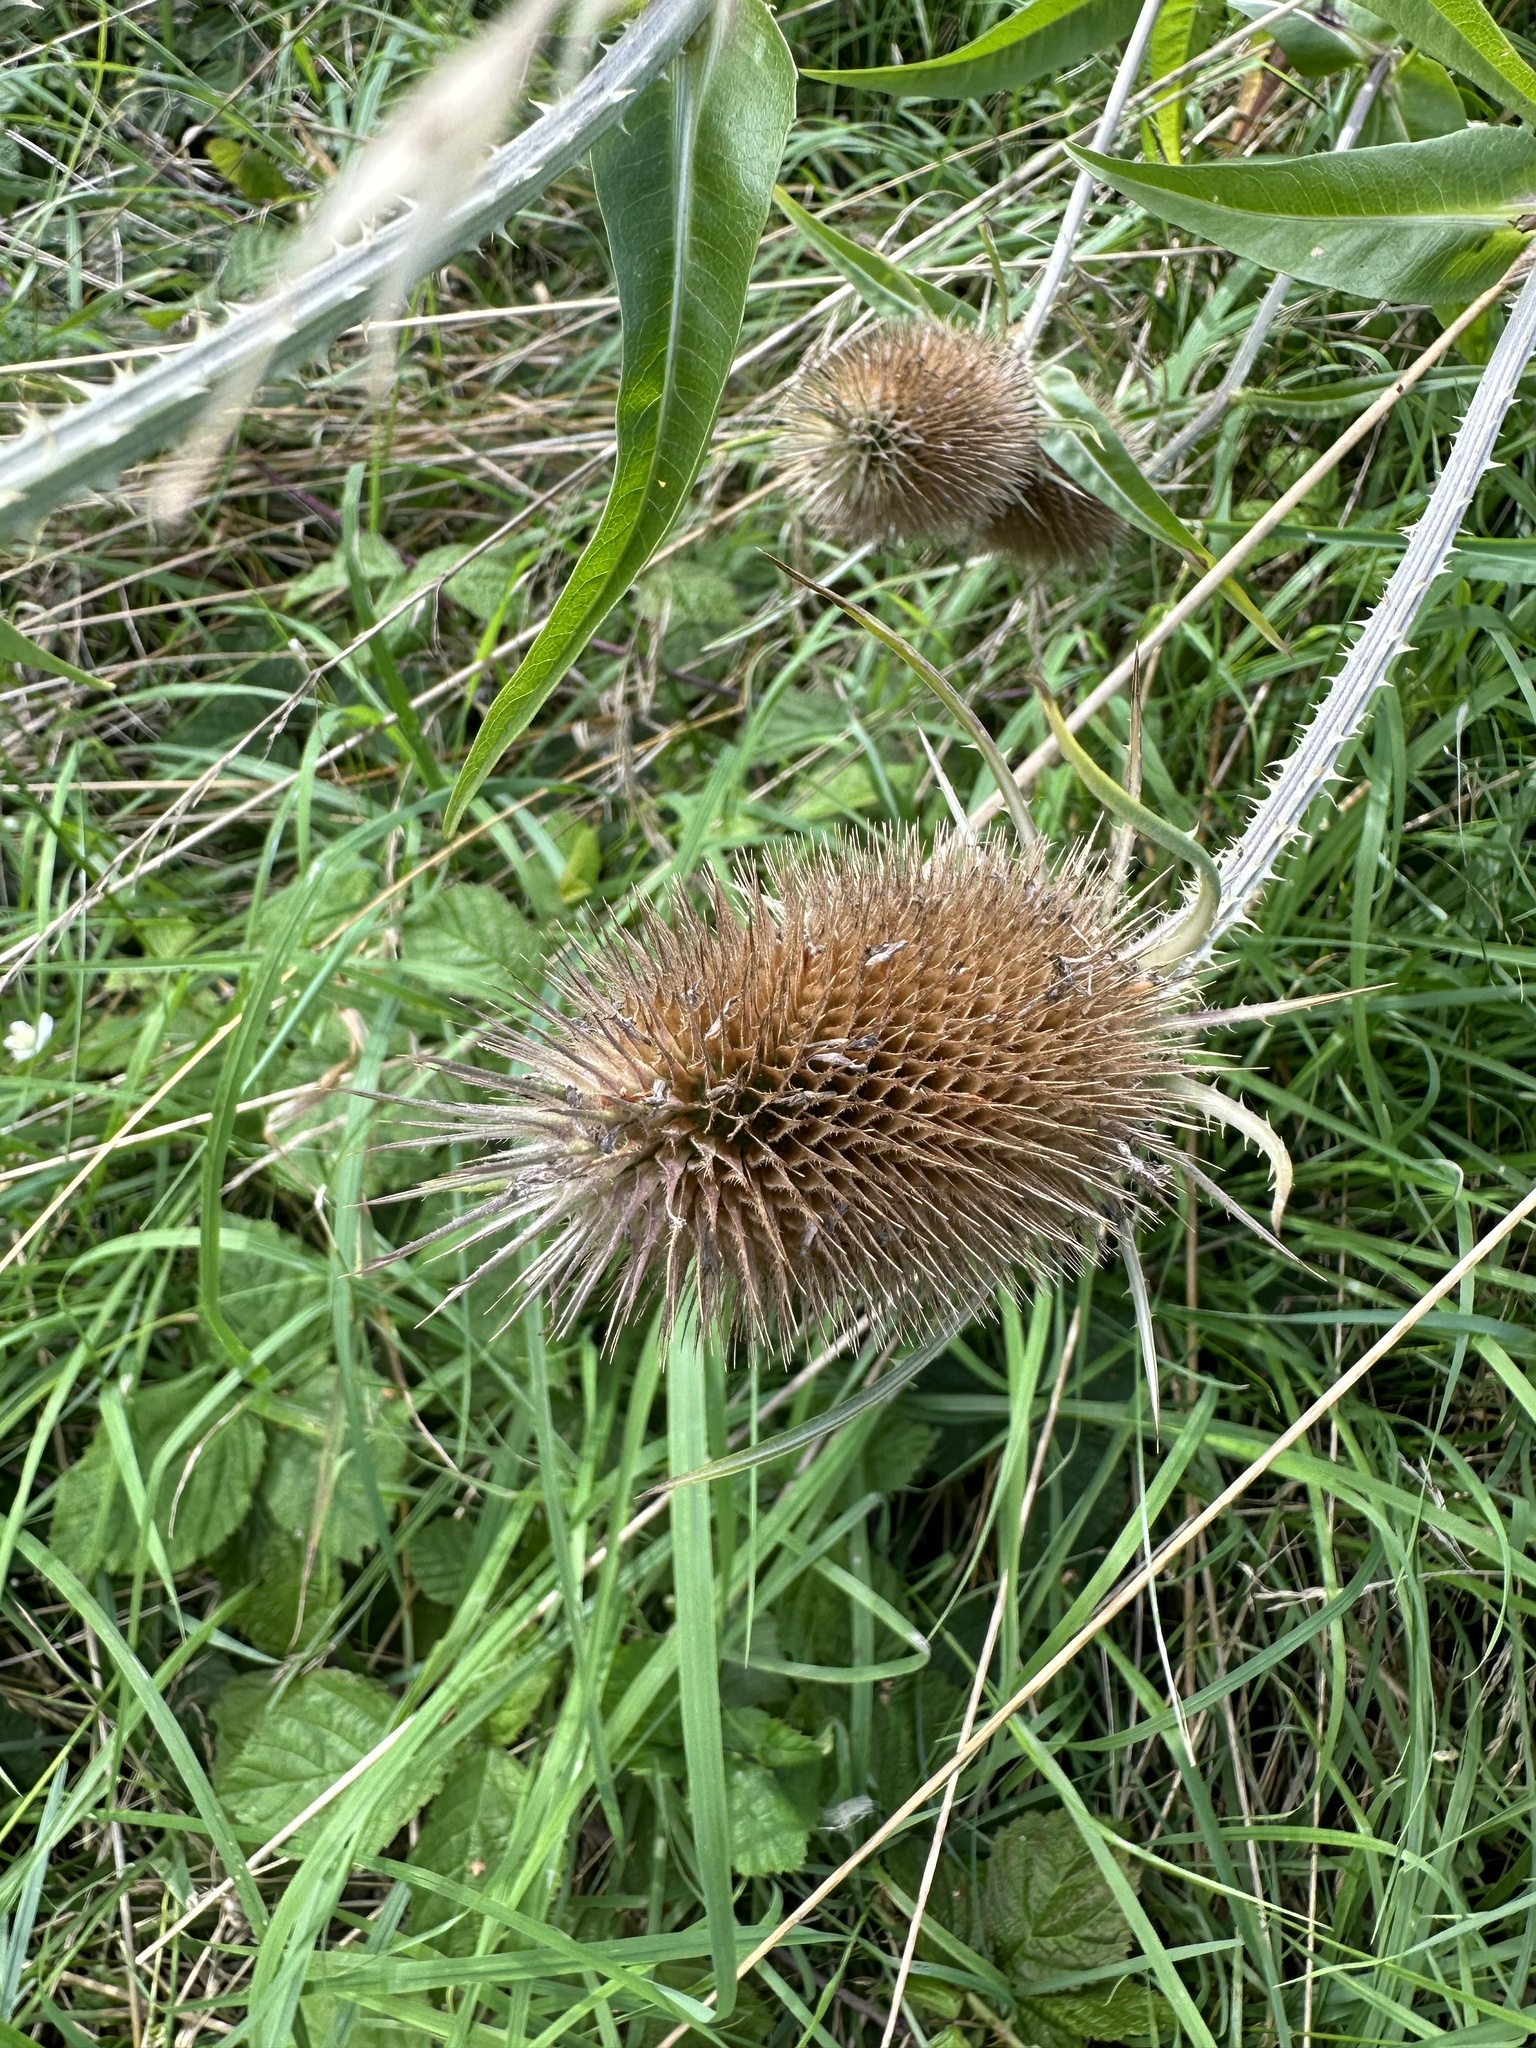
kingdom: Plantae
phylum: Tracheophyta
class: Magnoliopsida
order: Dipsacales
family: Caprifoliaceae
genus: Dipsacus
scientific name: Dipsacus fullonum
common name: Teasel
